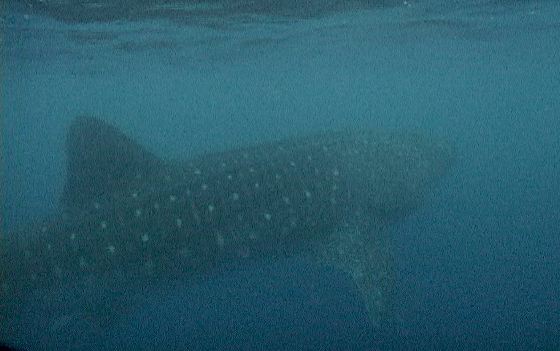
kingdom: Animalia
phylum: Chordata
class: Elasmobranchii
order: Orectolobiformes
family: Rhincodontidae
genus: Rhincodon
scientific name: Rhincodon typus
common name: Whale shark
